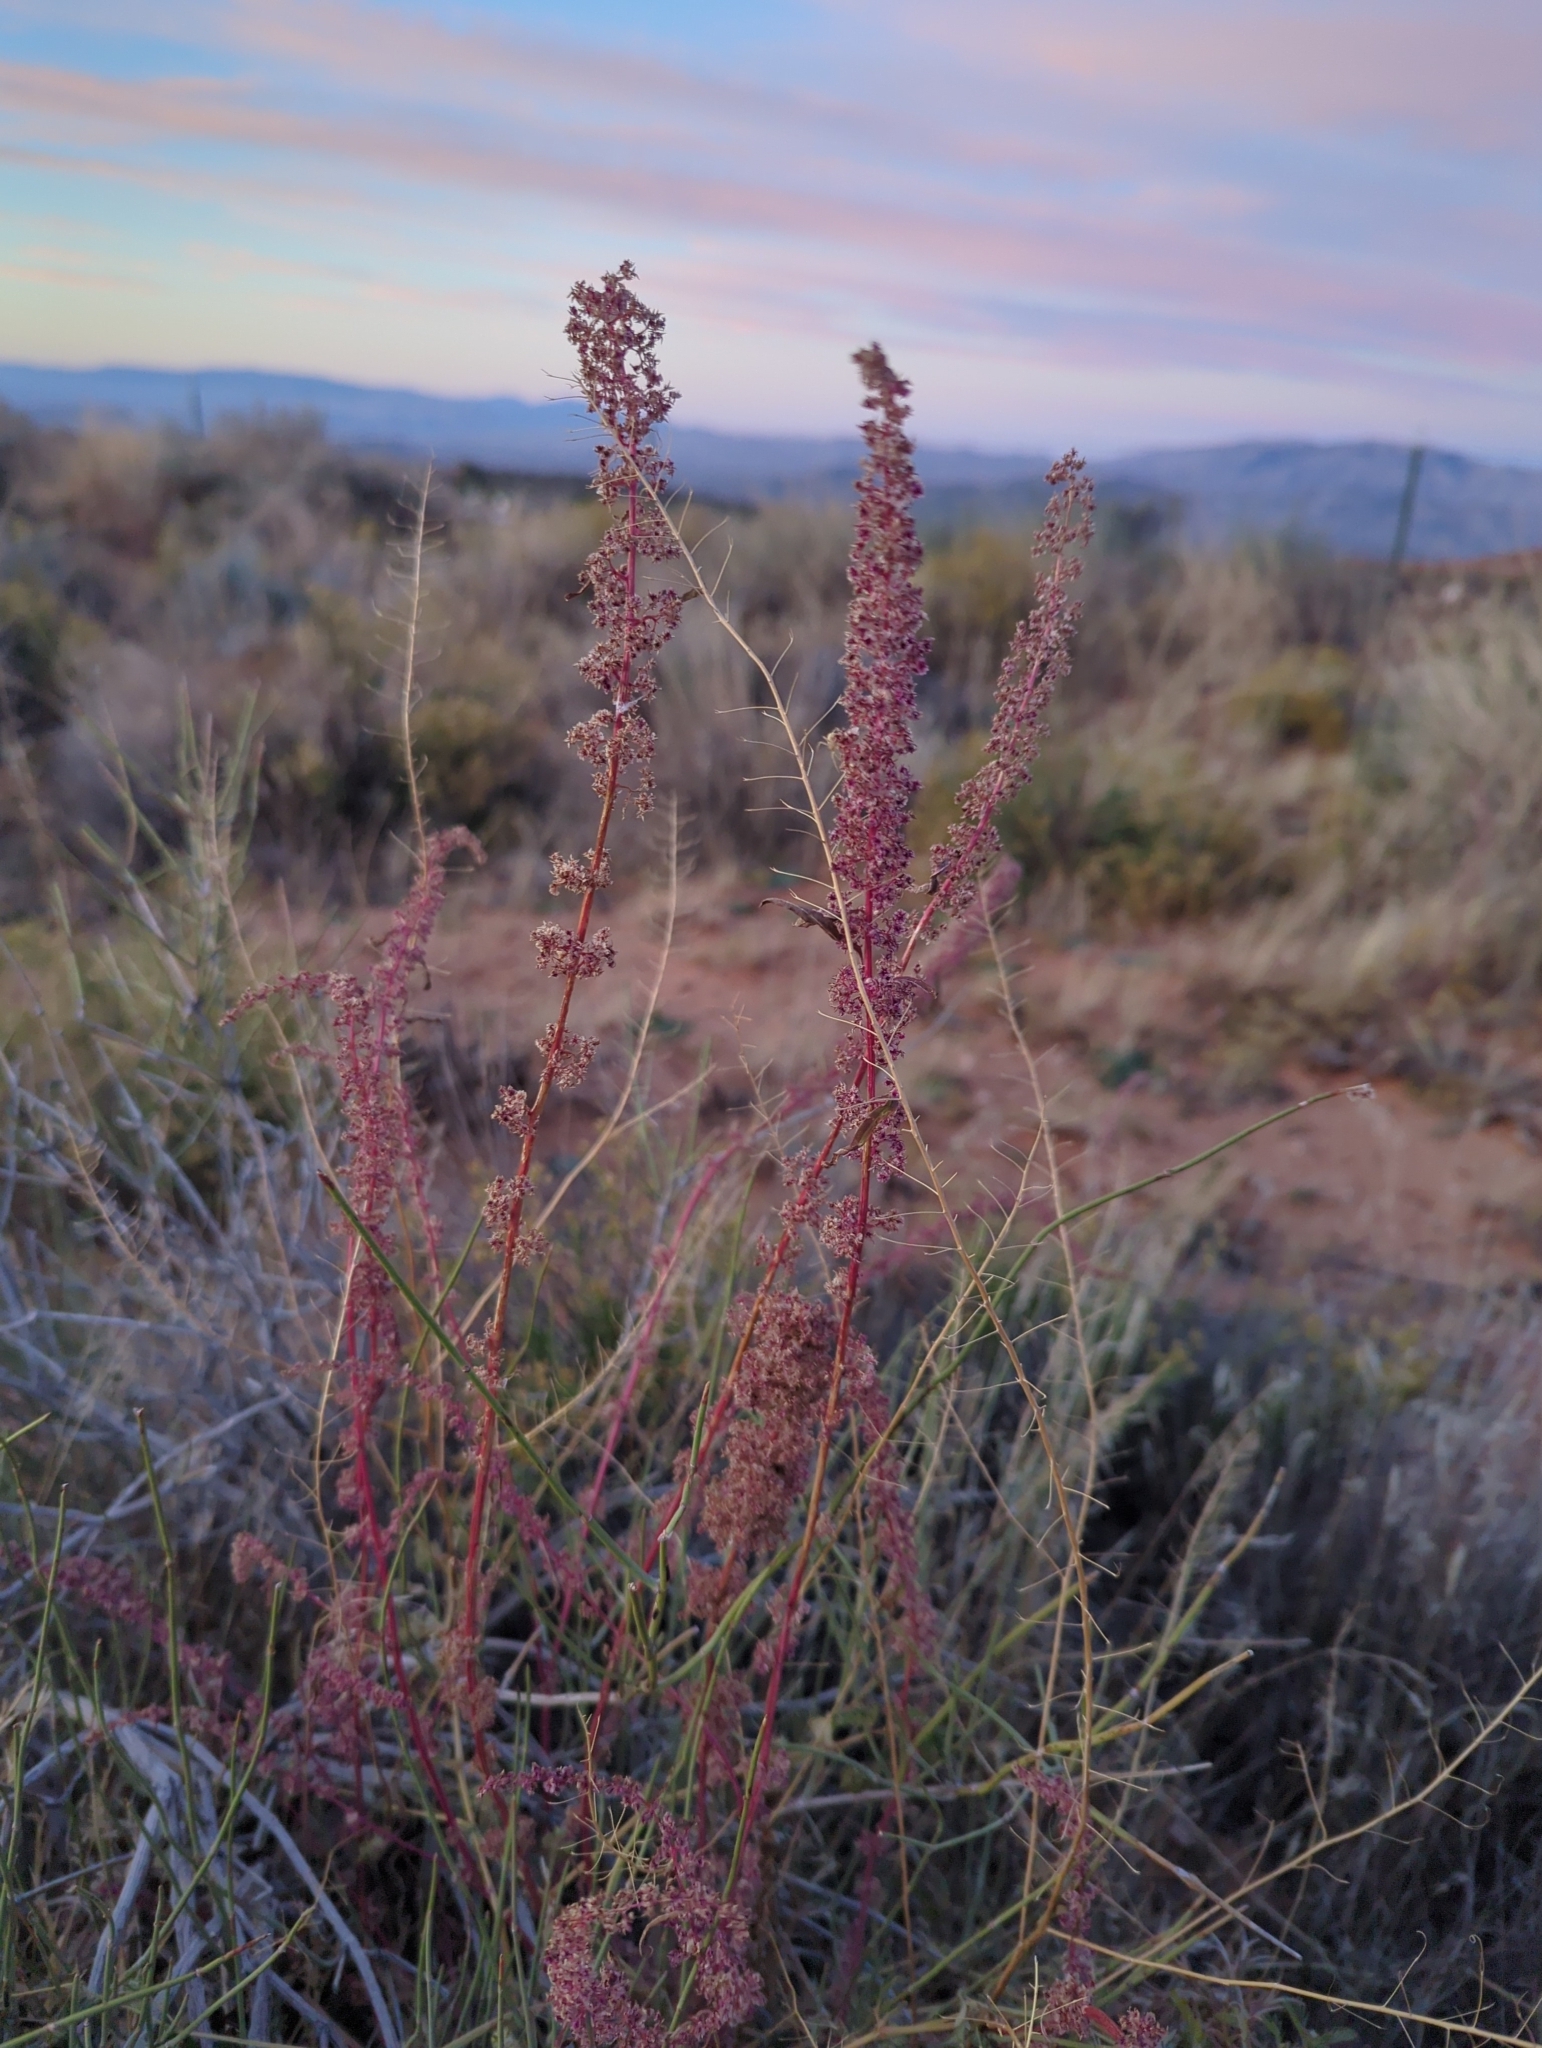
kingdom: Plantae
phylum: Tracheophyta
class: Magnoliopsida
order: Caryophyllales
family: Amaranthaceae
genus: Amaranthus
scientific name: Amaranthus fimbriatus
